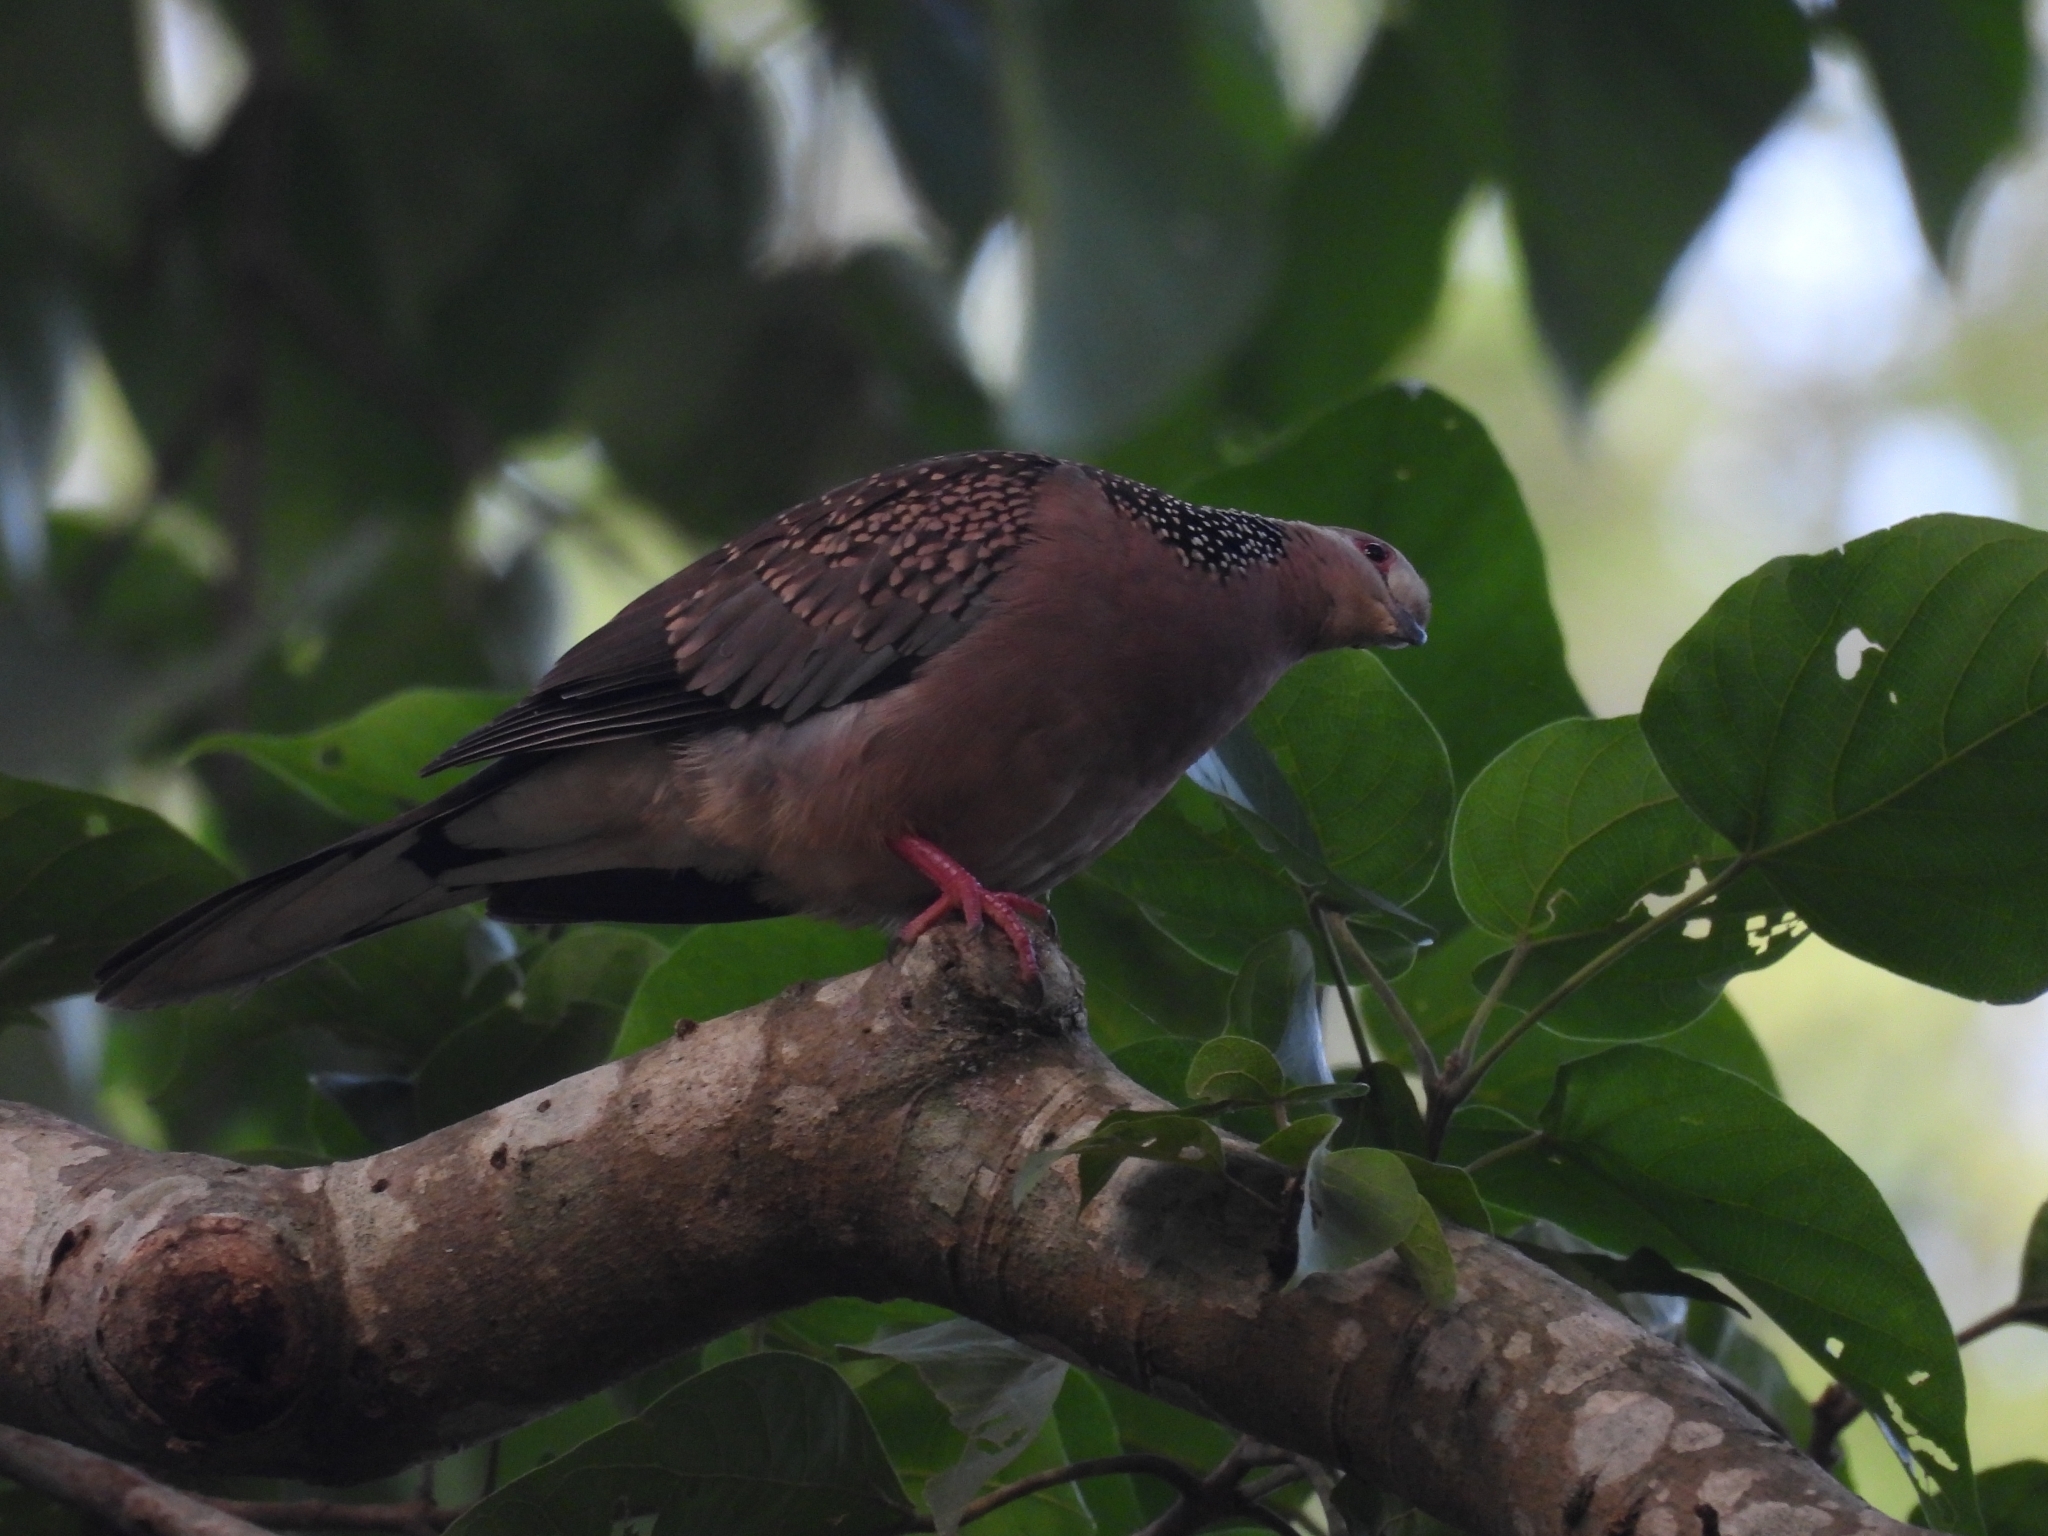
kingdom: Animalia
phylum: Chordata
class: Aves
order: Columbiformes
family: Columbidae
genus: Spilopelia
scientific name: Spilopelia chinensis
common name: Spotted dove
